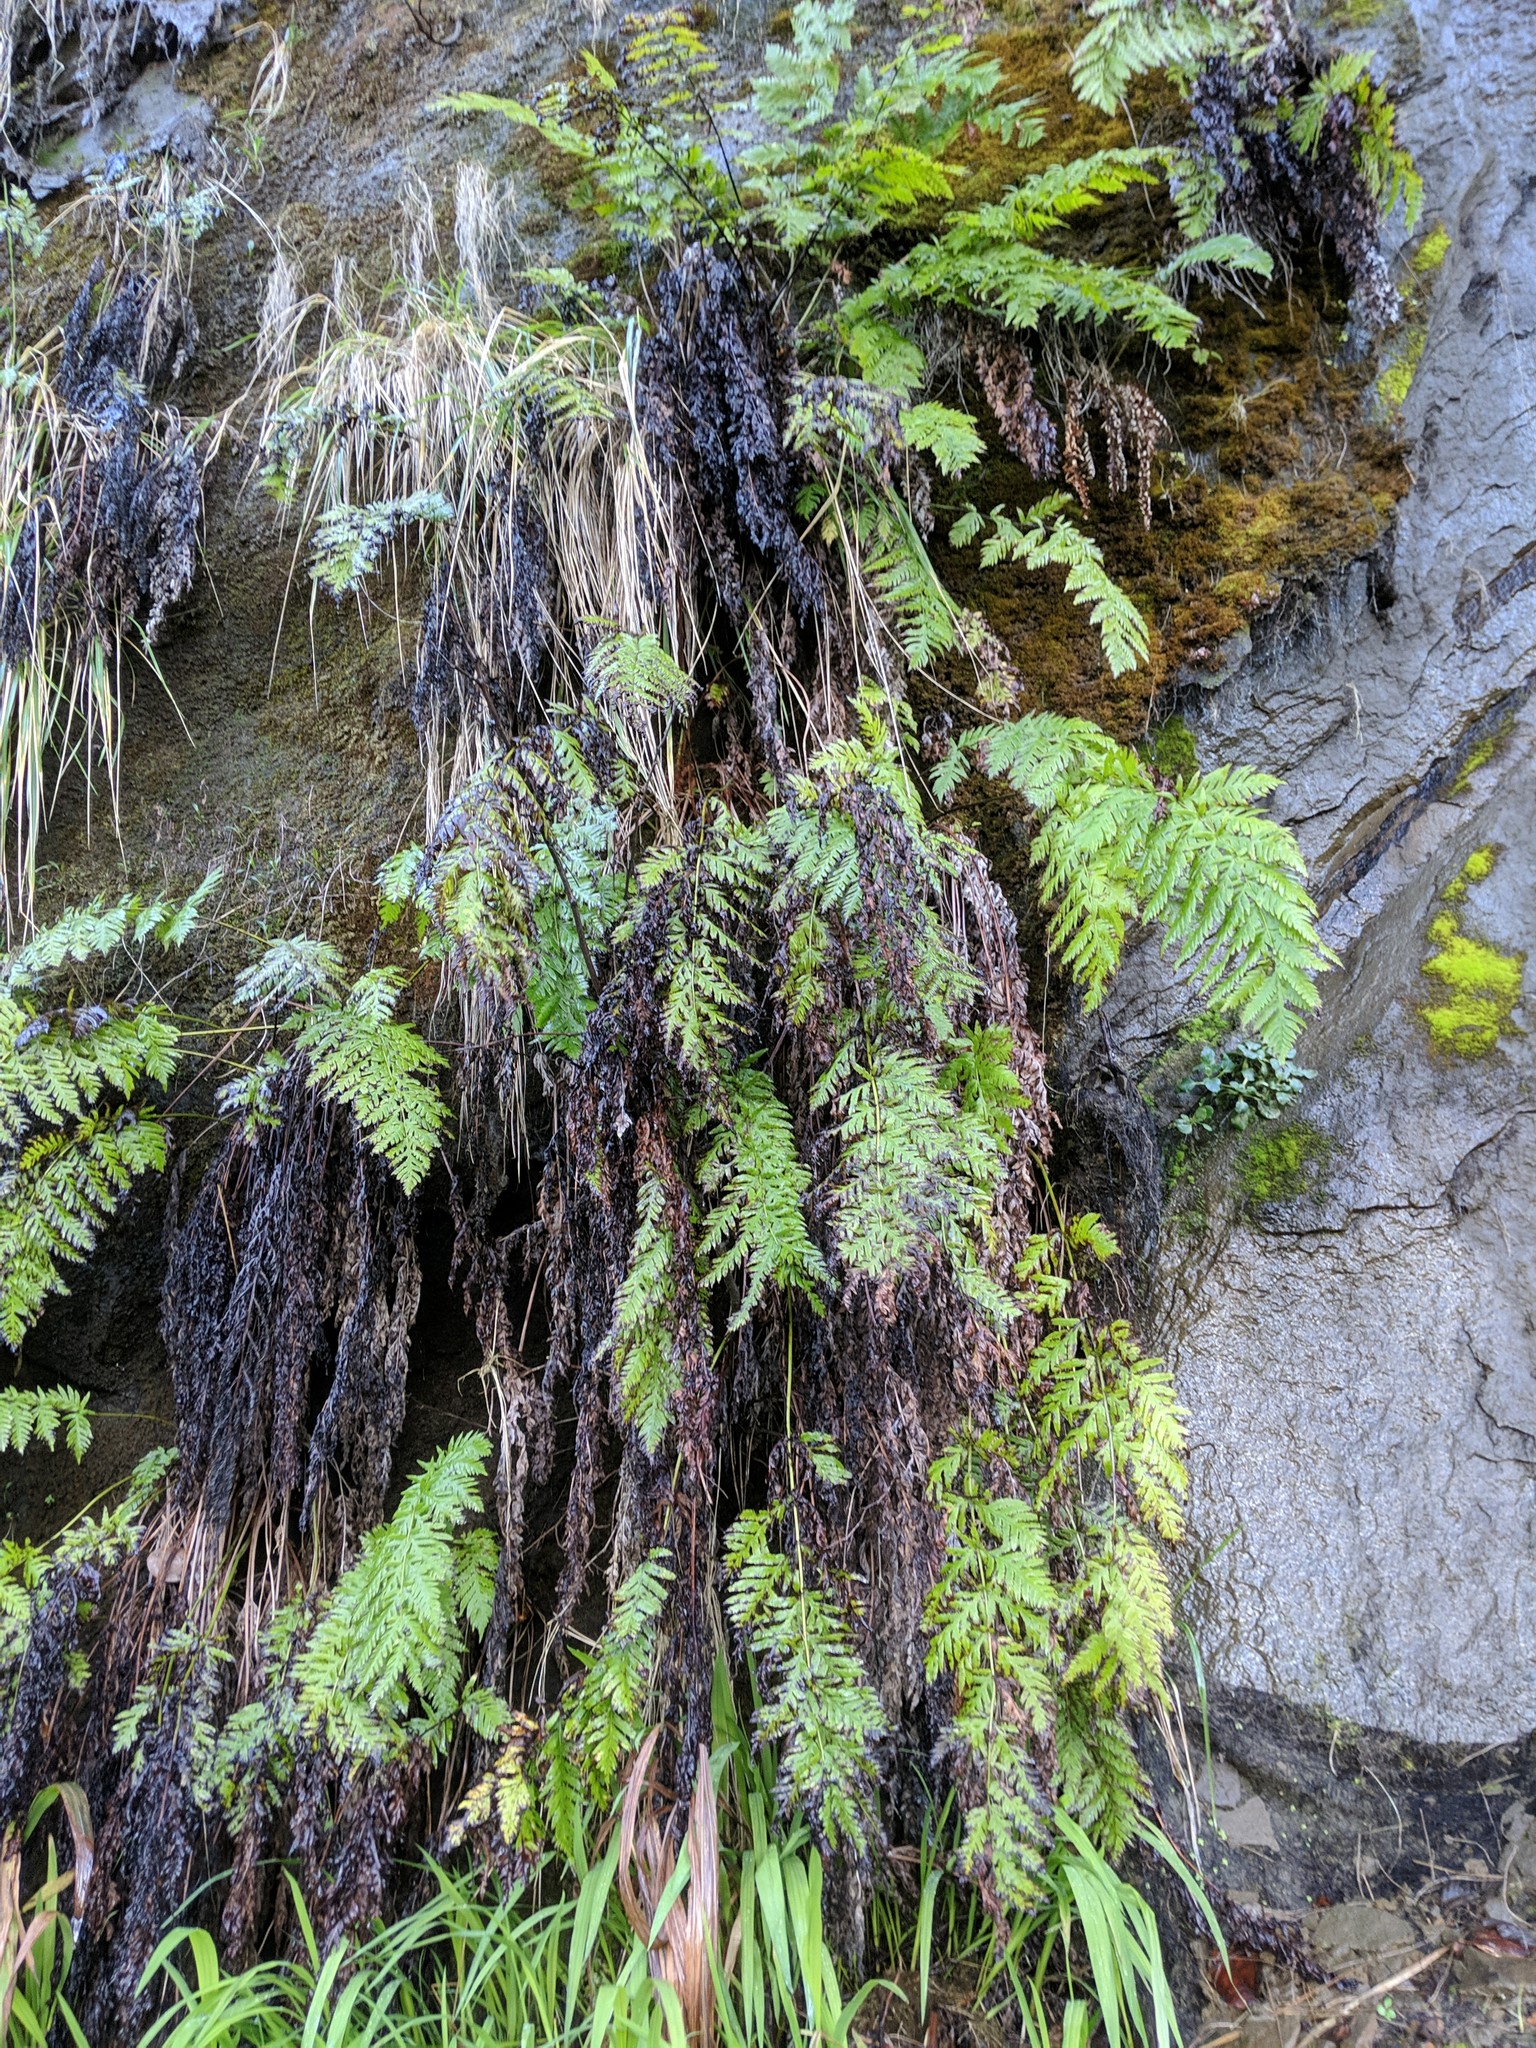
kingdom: Plantae
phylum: Tracheophyta
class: Polypodiopsida
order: Polypodiales
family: Blechnaceae
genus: Woodwardia
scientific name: Woodwardia fimbriata
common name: Giant chain fern
